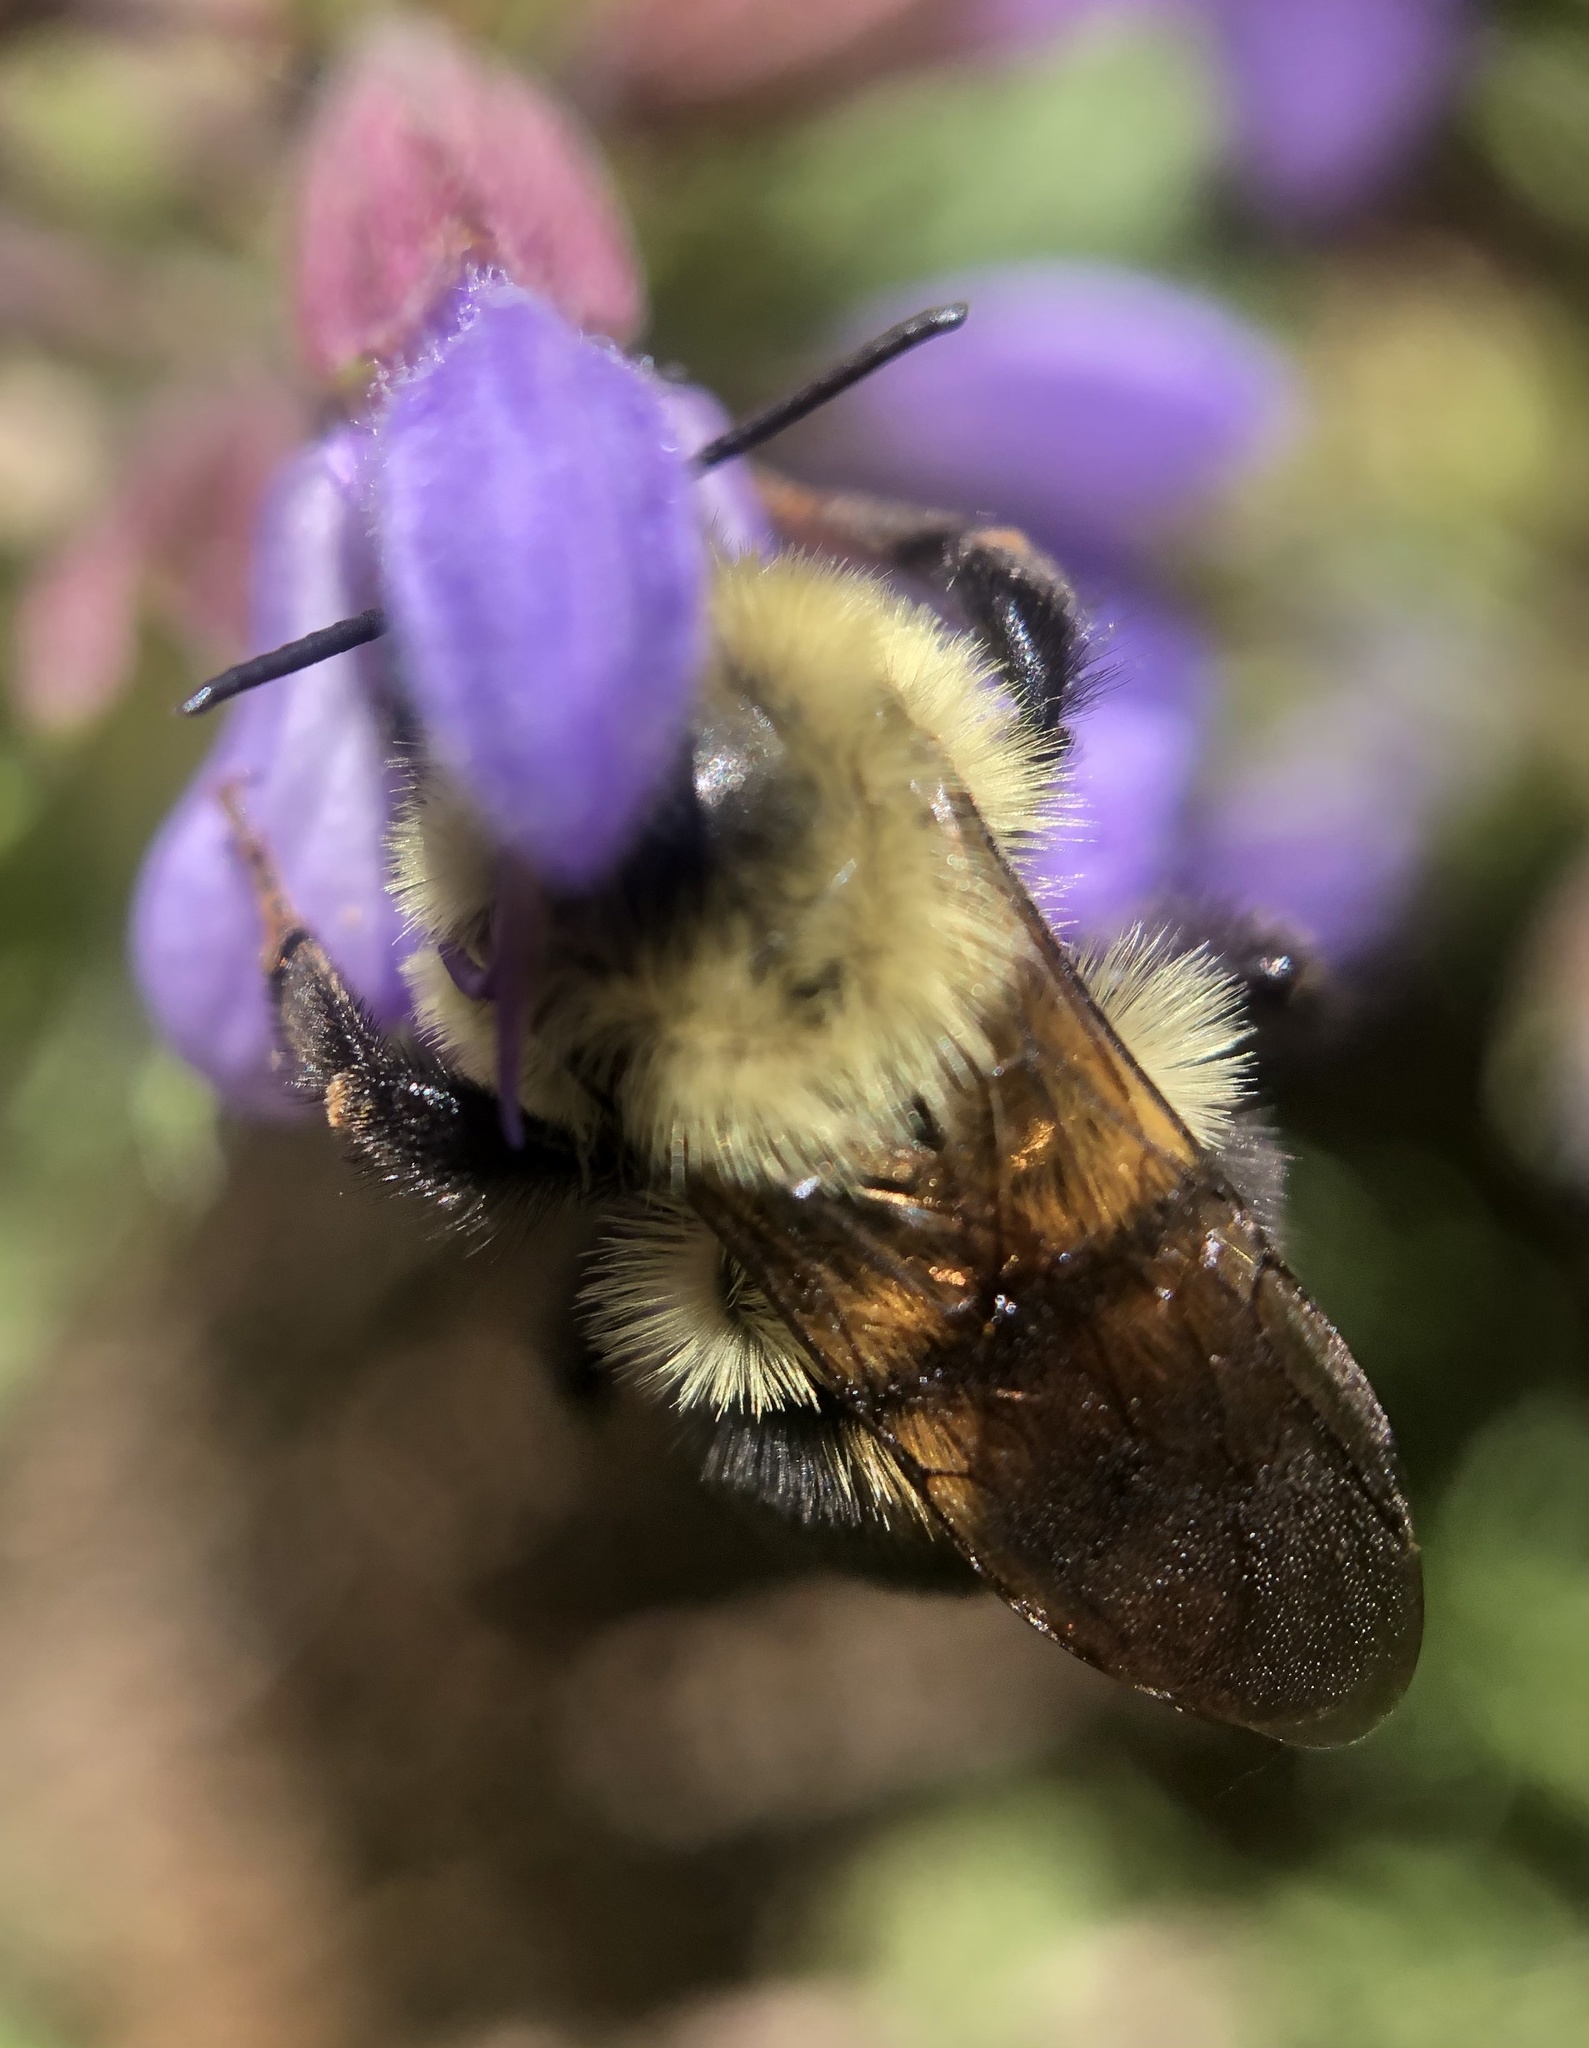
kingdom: Animalia
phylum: Arthropoda
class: Insecta
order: Hymenoptera
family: Apidae
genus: Bombus
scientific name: Bombus bimaculatus
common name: Two-spotted bumble bee
